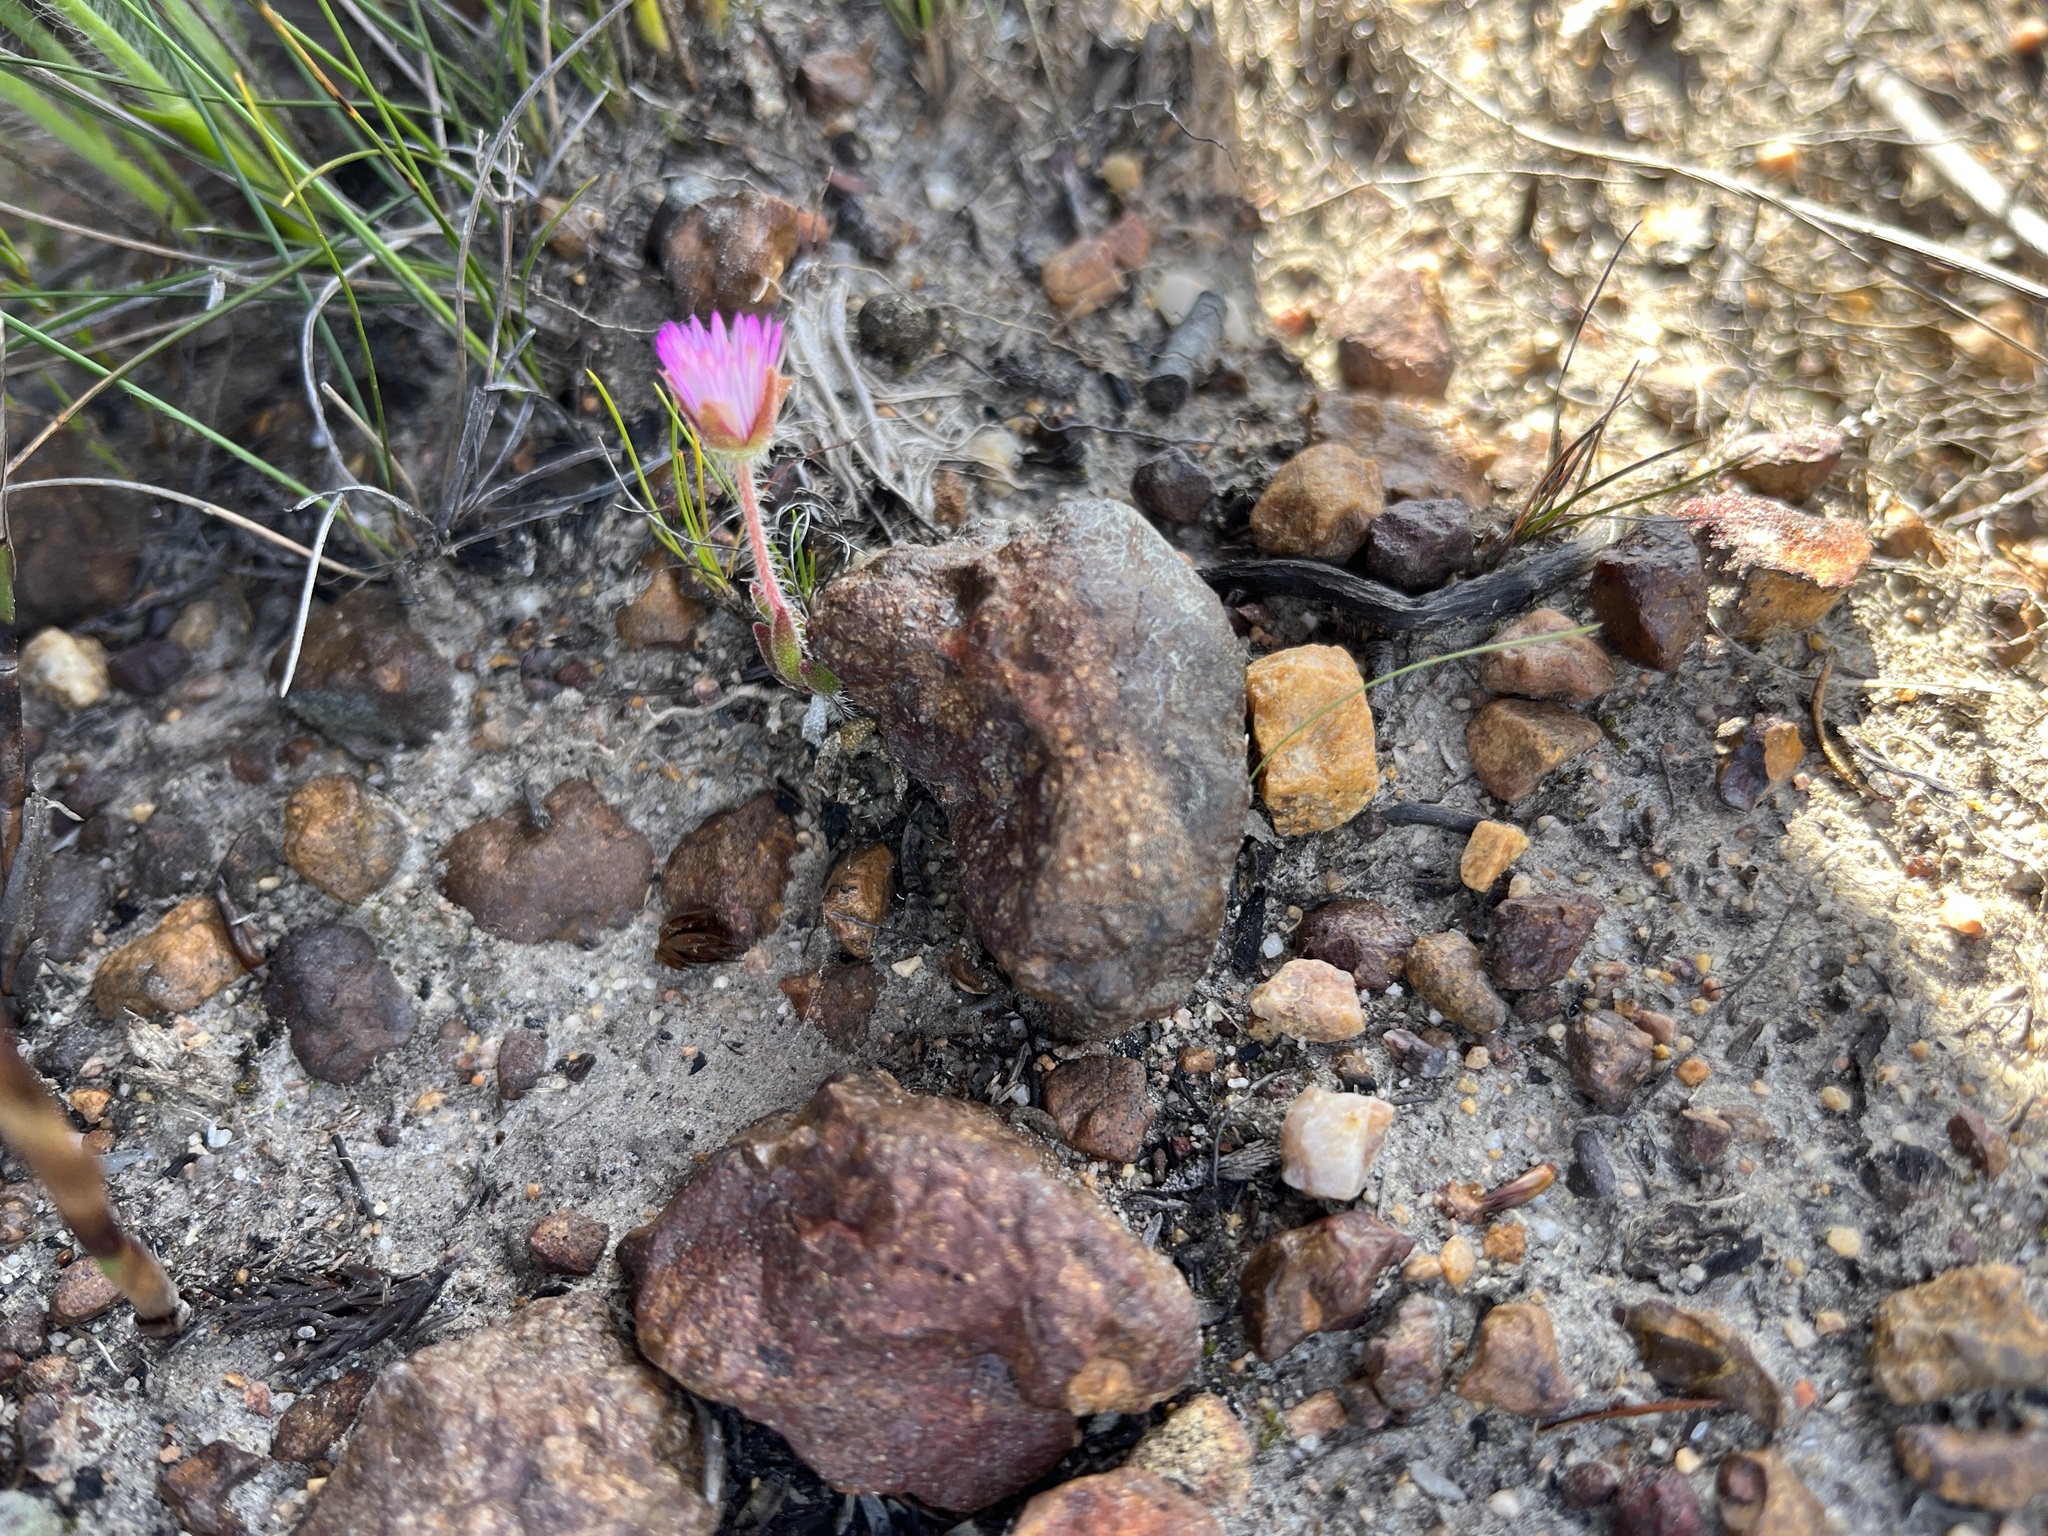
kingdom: Plantae
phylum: Tracheophyta
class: Magnoliopsida
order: Caryophyllales
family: Aizoaceae
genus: Drosanthemum
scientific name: Drosanthemum striatum
